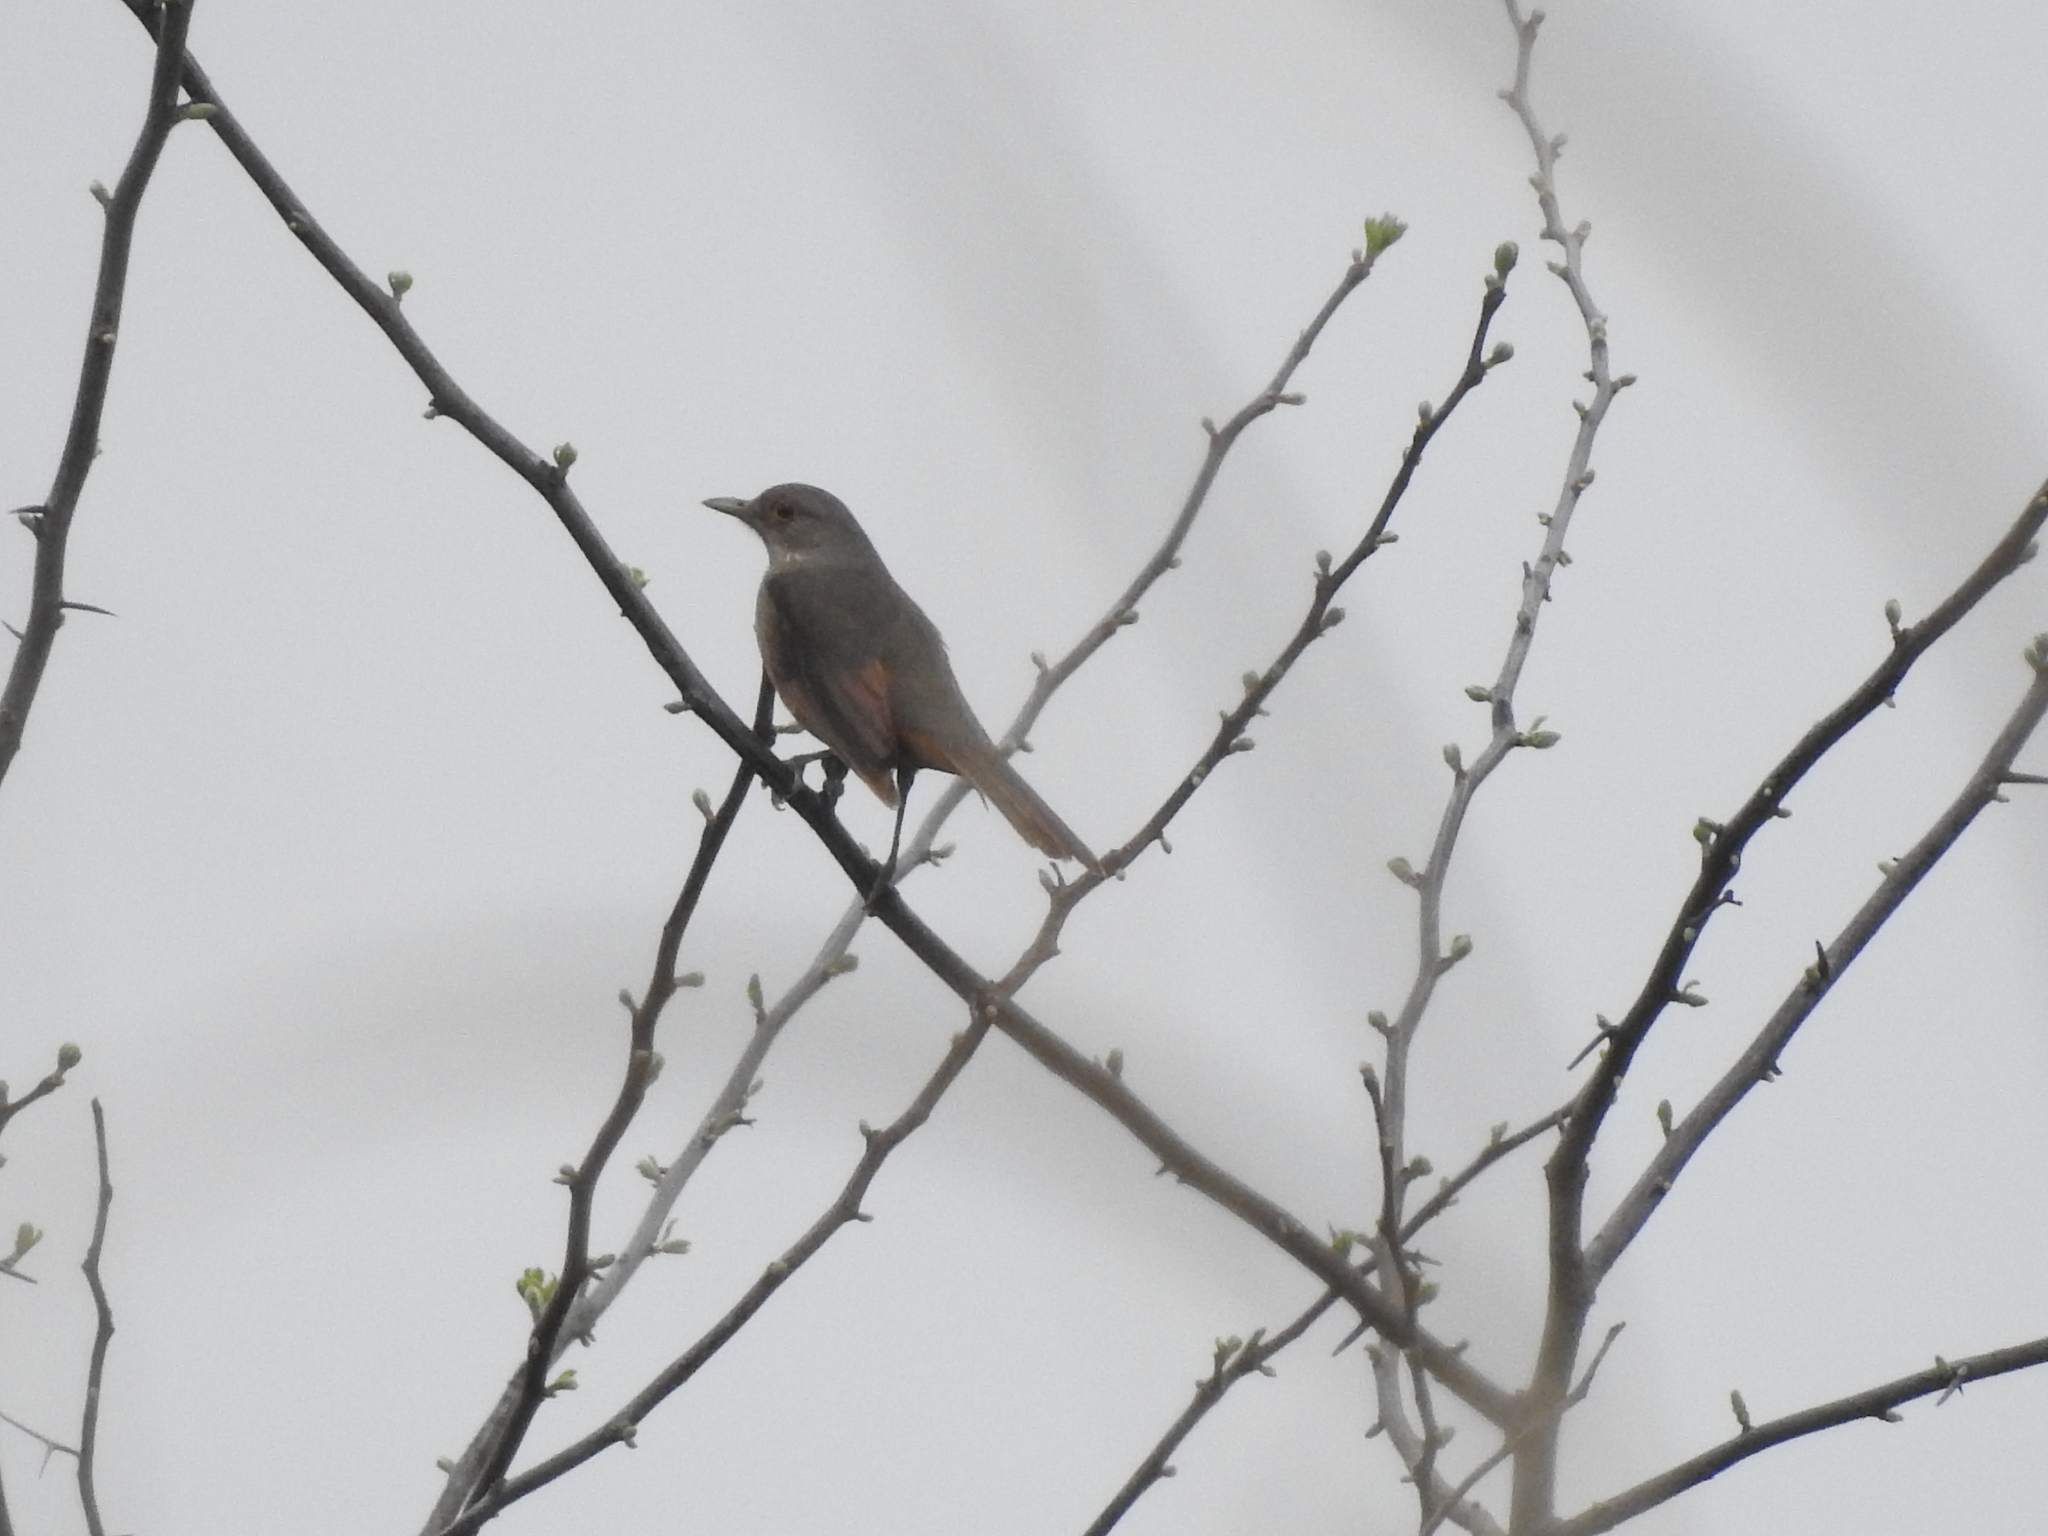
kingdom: Animalia
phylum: Chordata
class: Aves
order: Passeriformes
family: Turdidae
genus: Turdus
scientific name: Turdus rufiventris
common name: Rufous-bellied thrush
